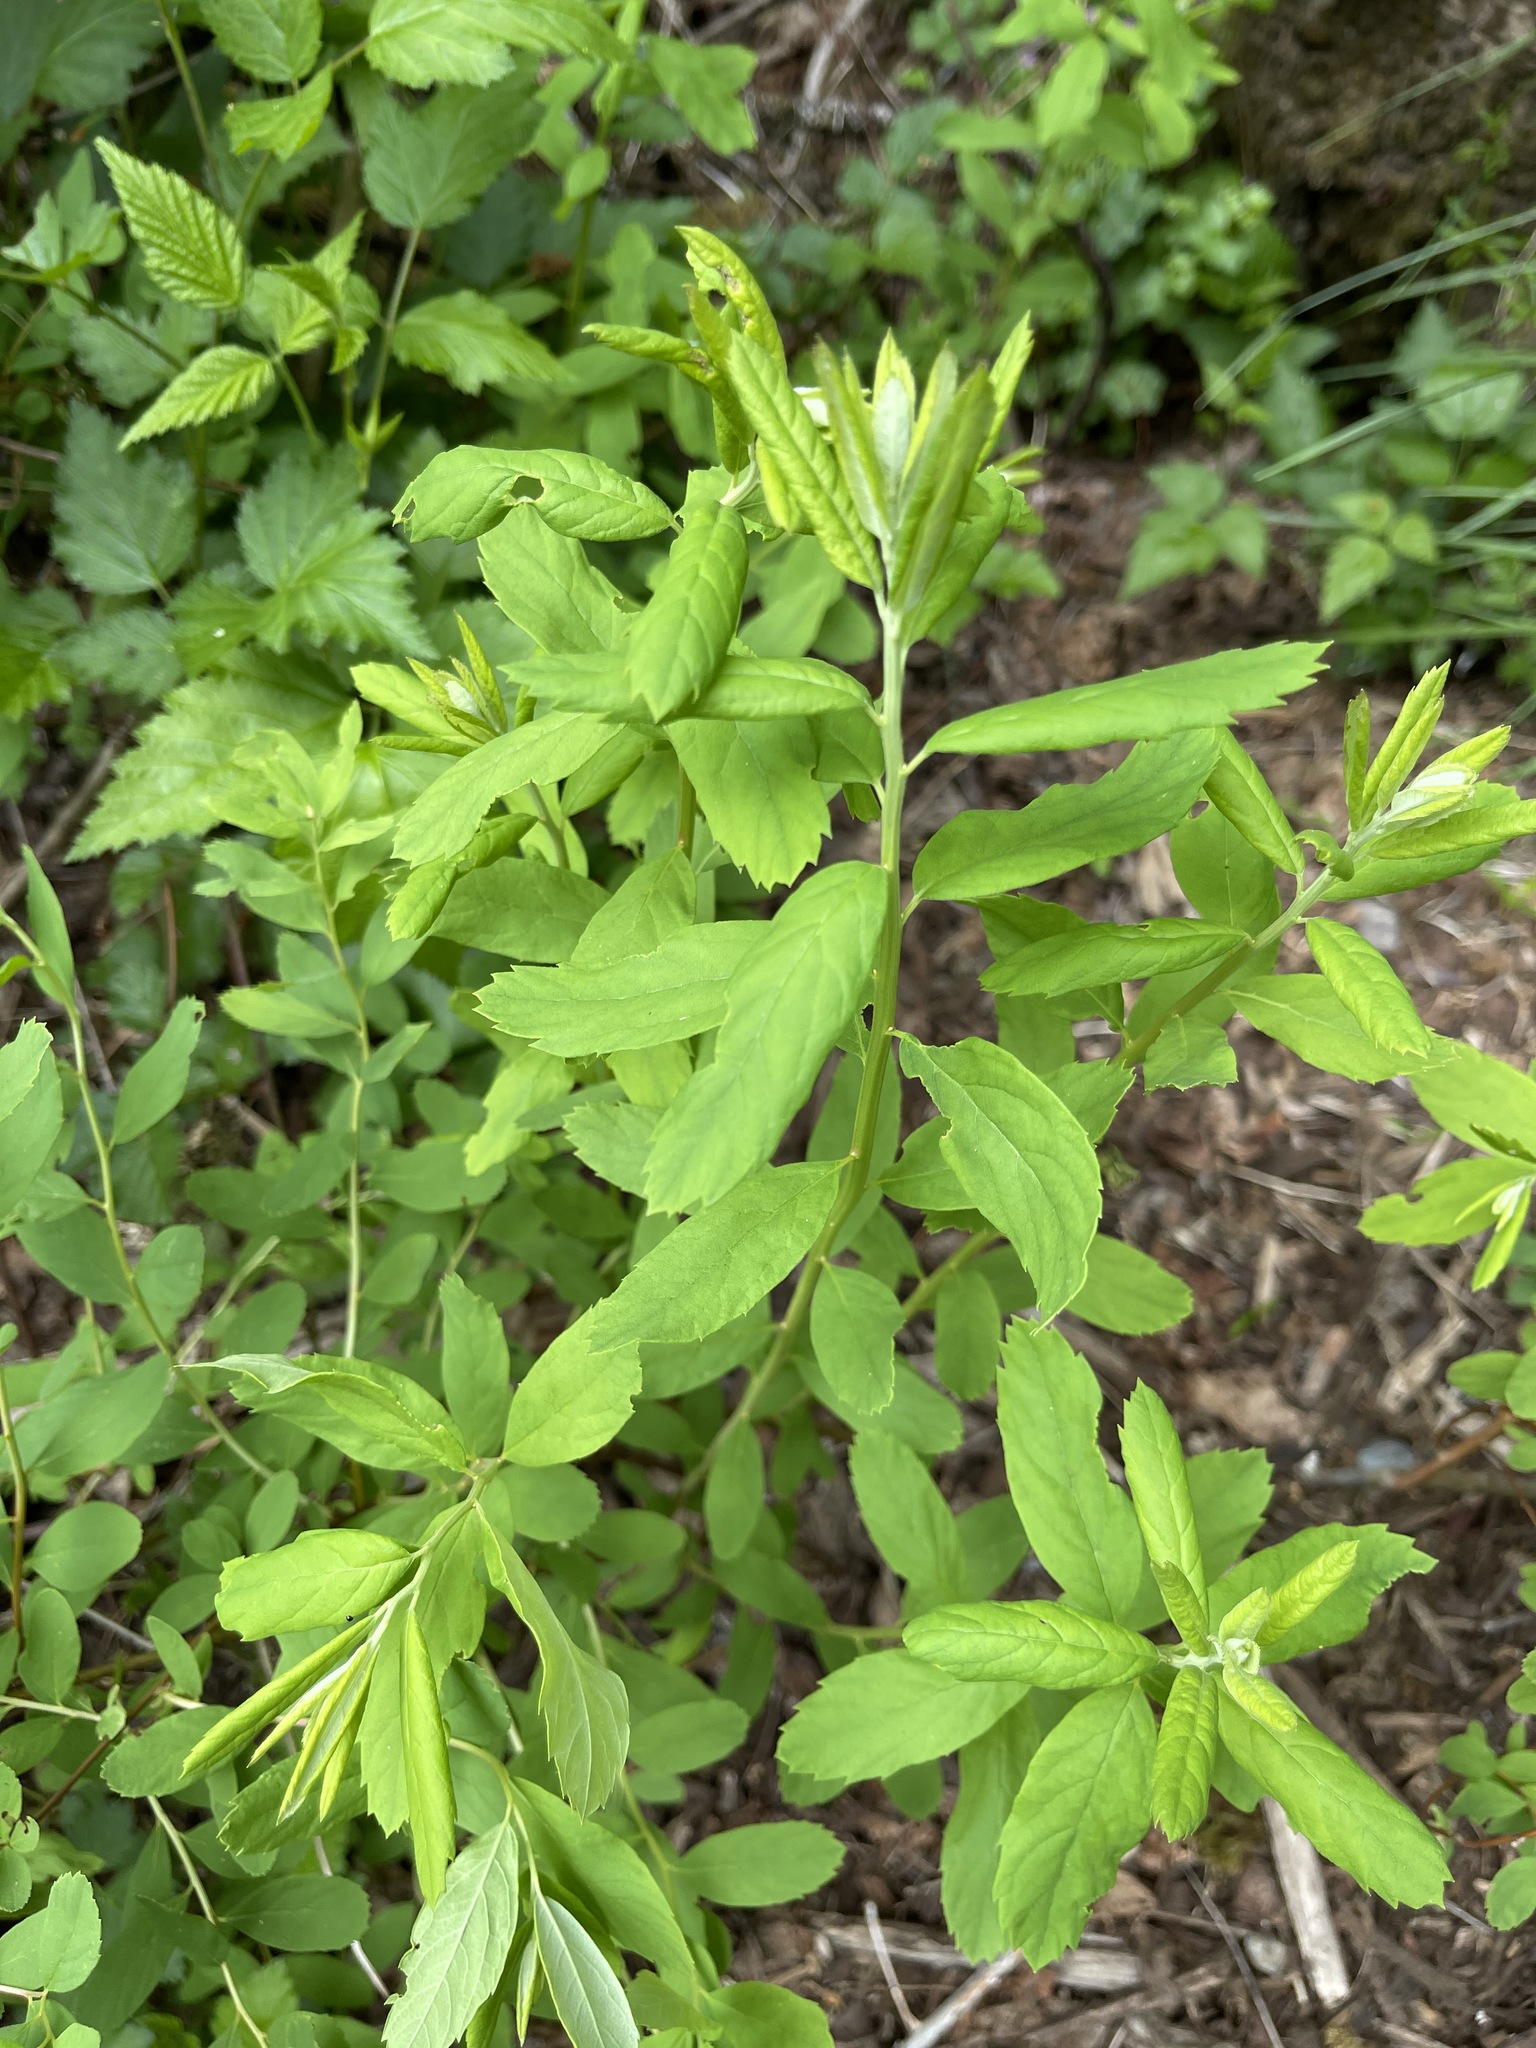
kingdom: Plantae
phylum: Tracheophyta
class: Magnoliopsida
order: Rosales
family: Rosaceae
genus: Spiraea
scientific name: Spiraea douglasii
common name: Steeplebush
